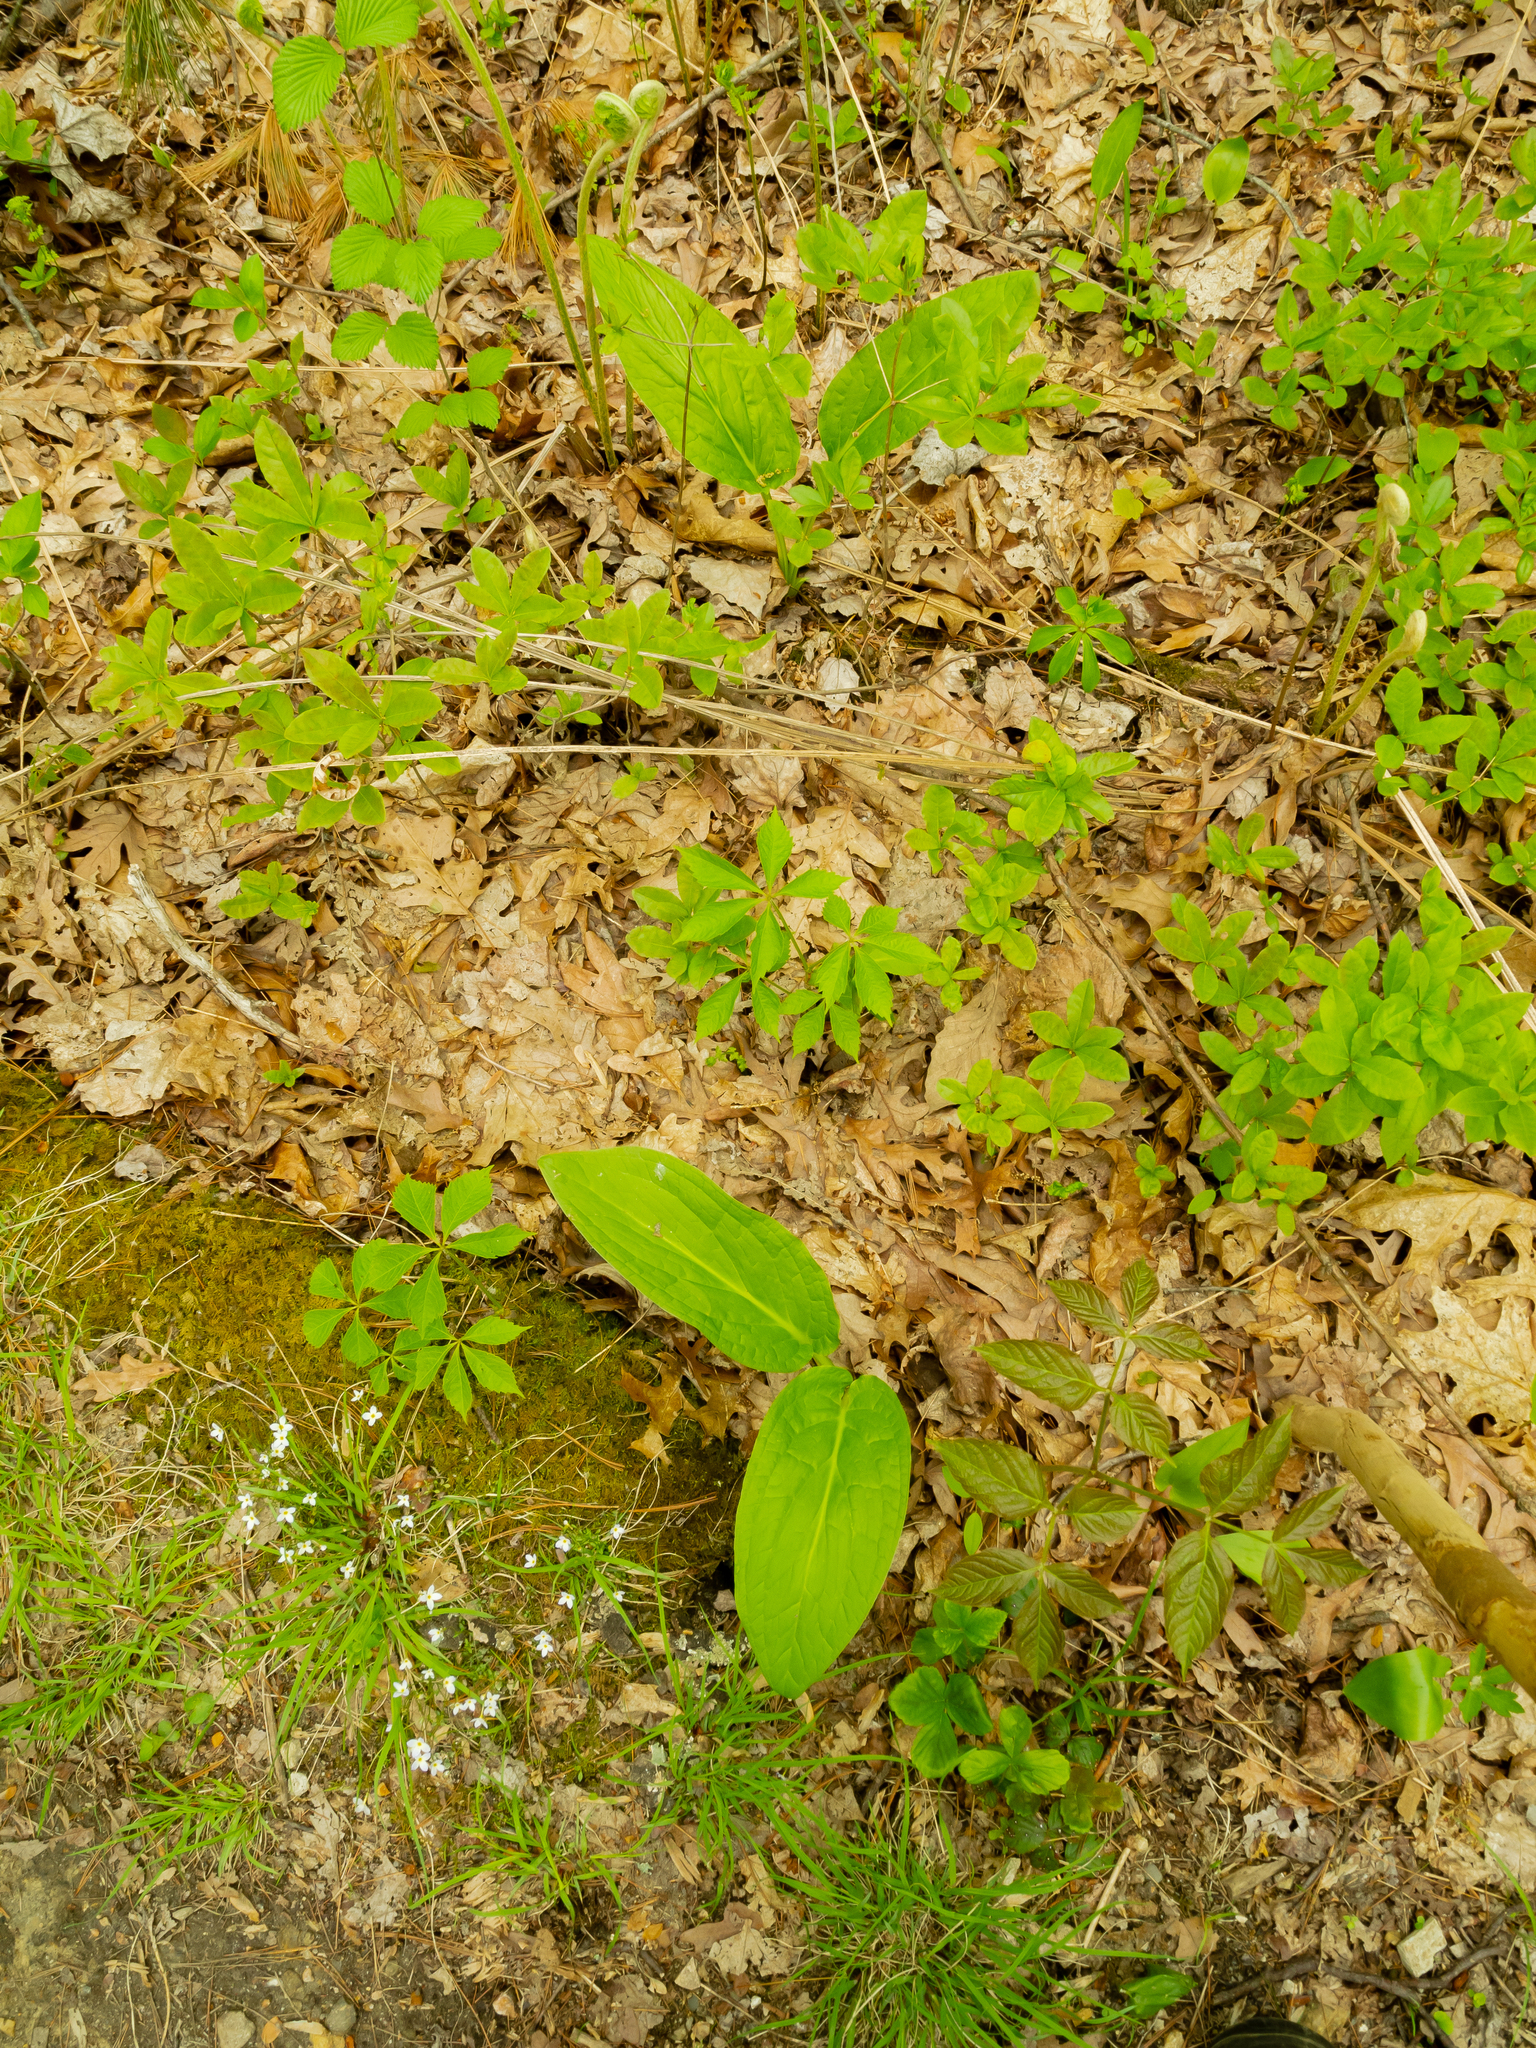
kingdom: Plantae
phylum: Tracheophyta
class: Liliopsida
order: Alismatales
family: Araceae
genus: Symplocarpus
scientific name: Symplocarpus foetidus
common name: Eastern skunk cabbage
